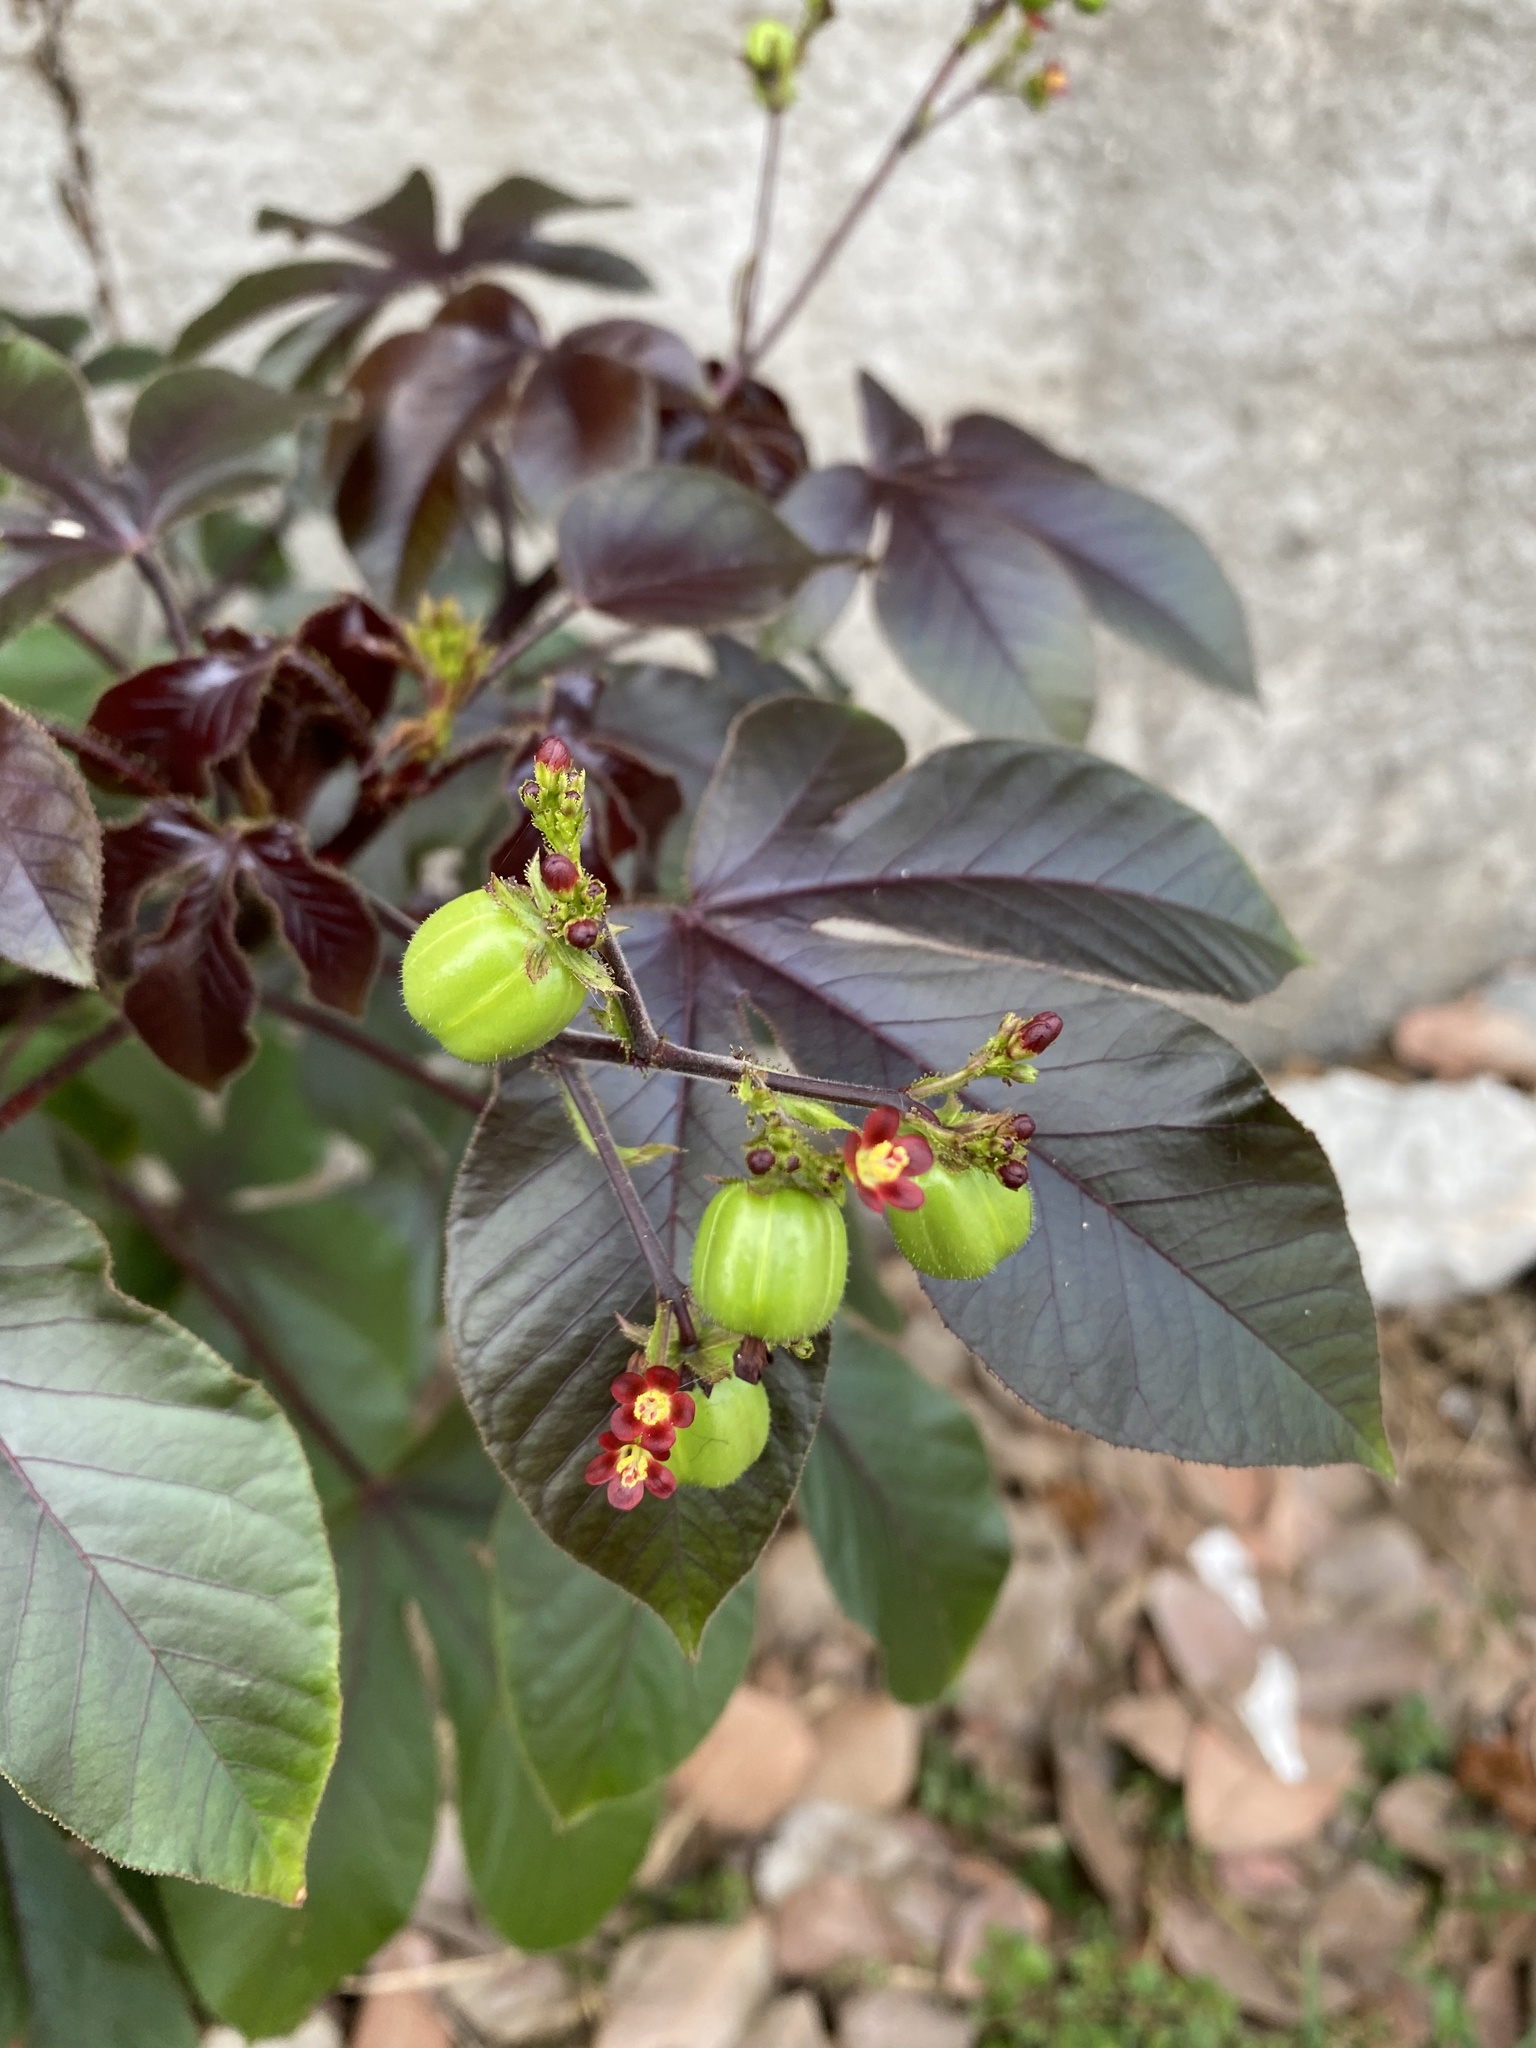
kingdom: Plantae
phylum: Tracheophyta
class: Magnoliopsida
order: Malpighiales
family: Euphorbiaceae
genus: Jatropha
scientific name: Jatropha gossypiifolia
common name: Bellyache bush
